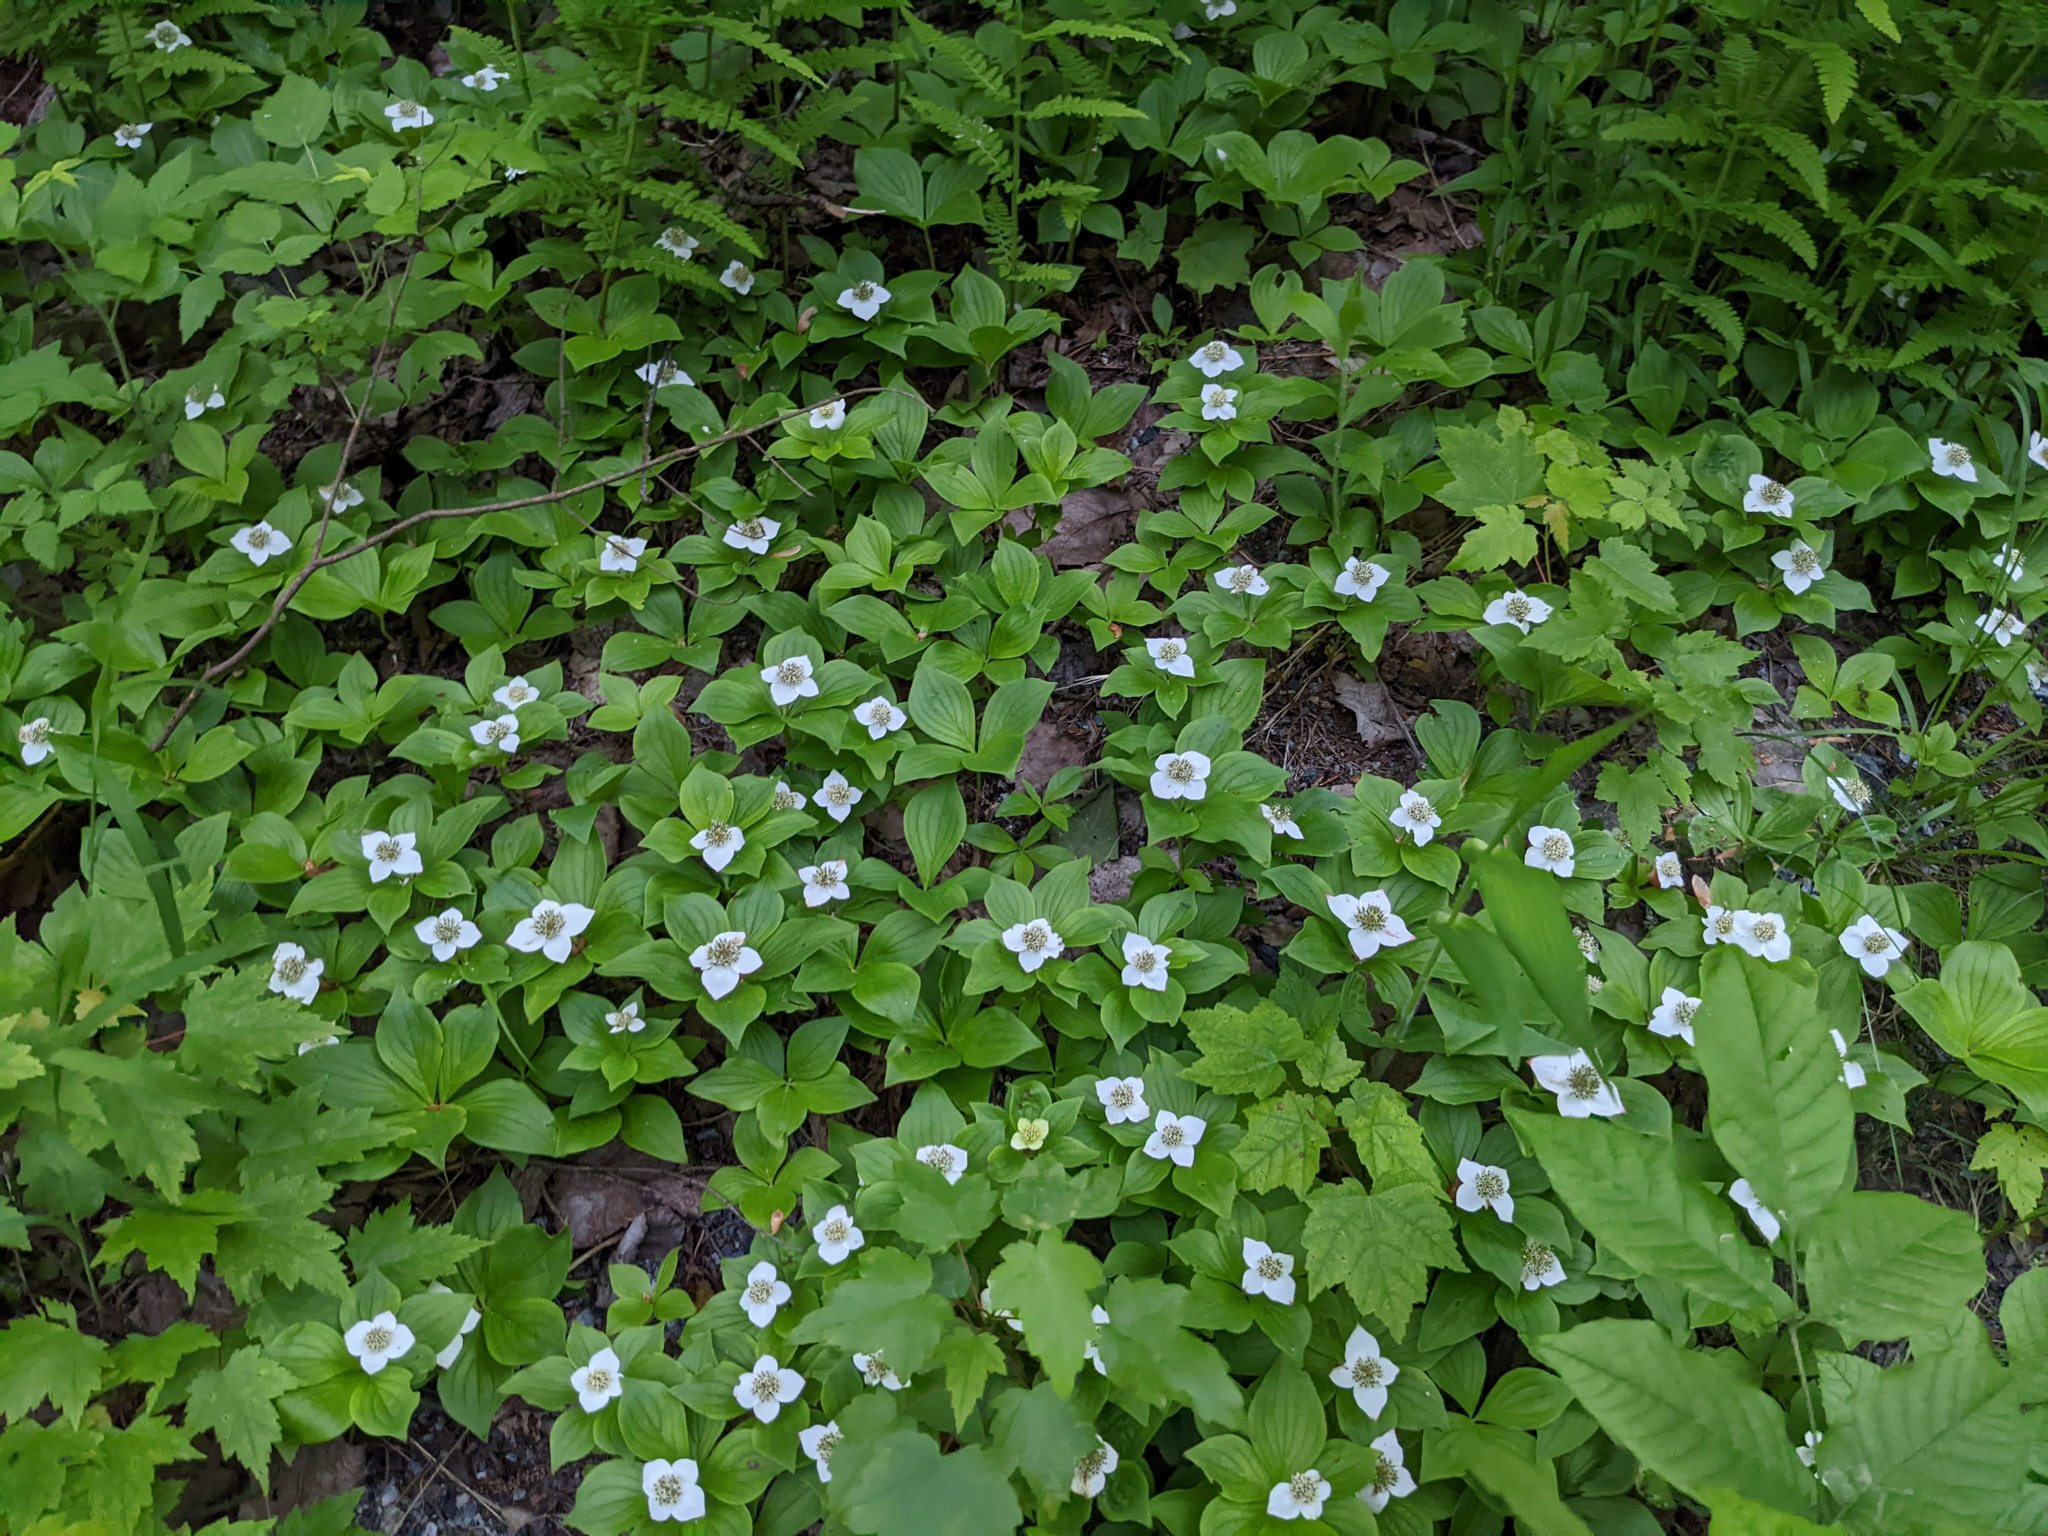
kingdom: Plantae
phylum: Tracheophyta
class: Magnoliopsida
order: Cornales
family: Cornaceae
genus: Cornus
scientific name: Cornus canadensis
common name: Creeping dogwood
